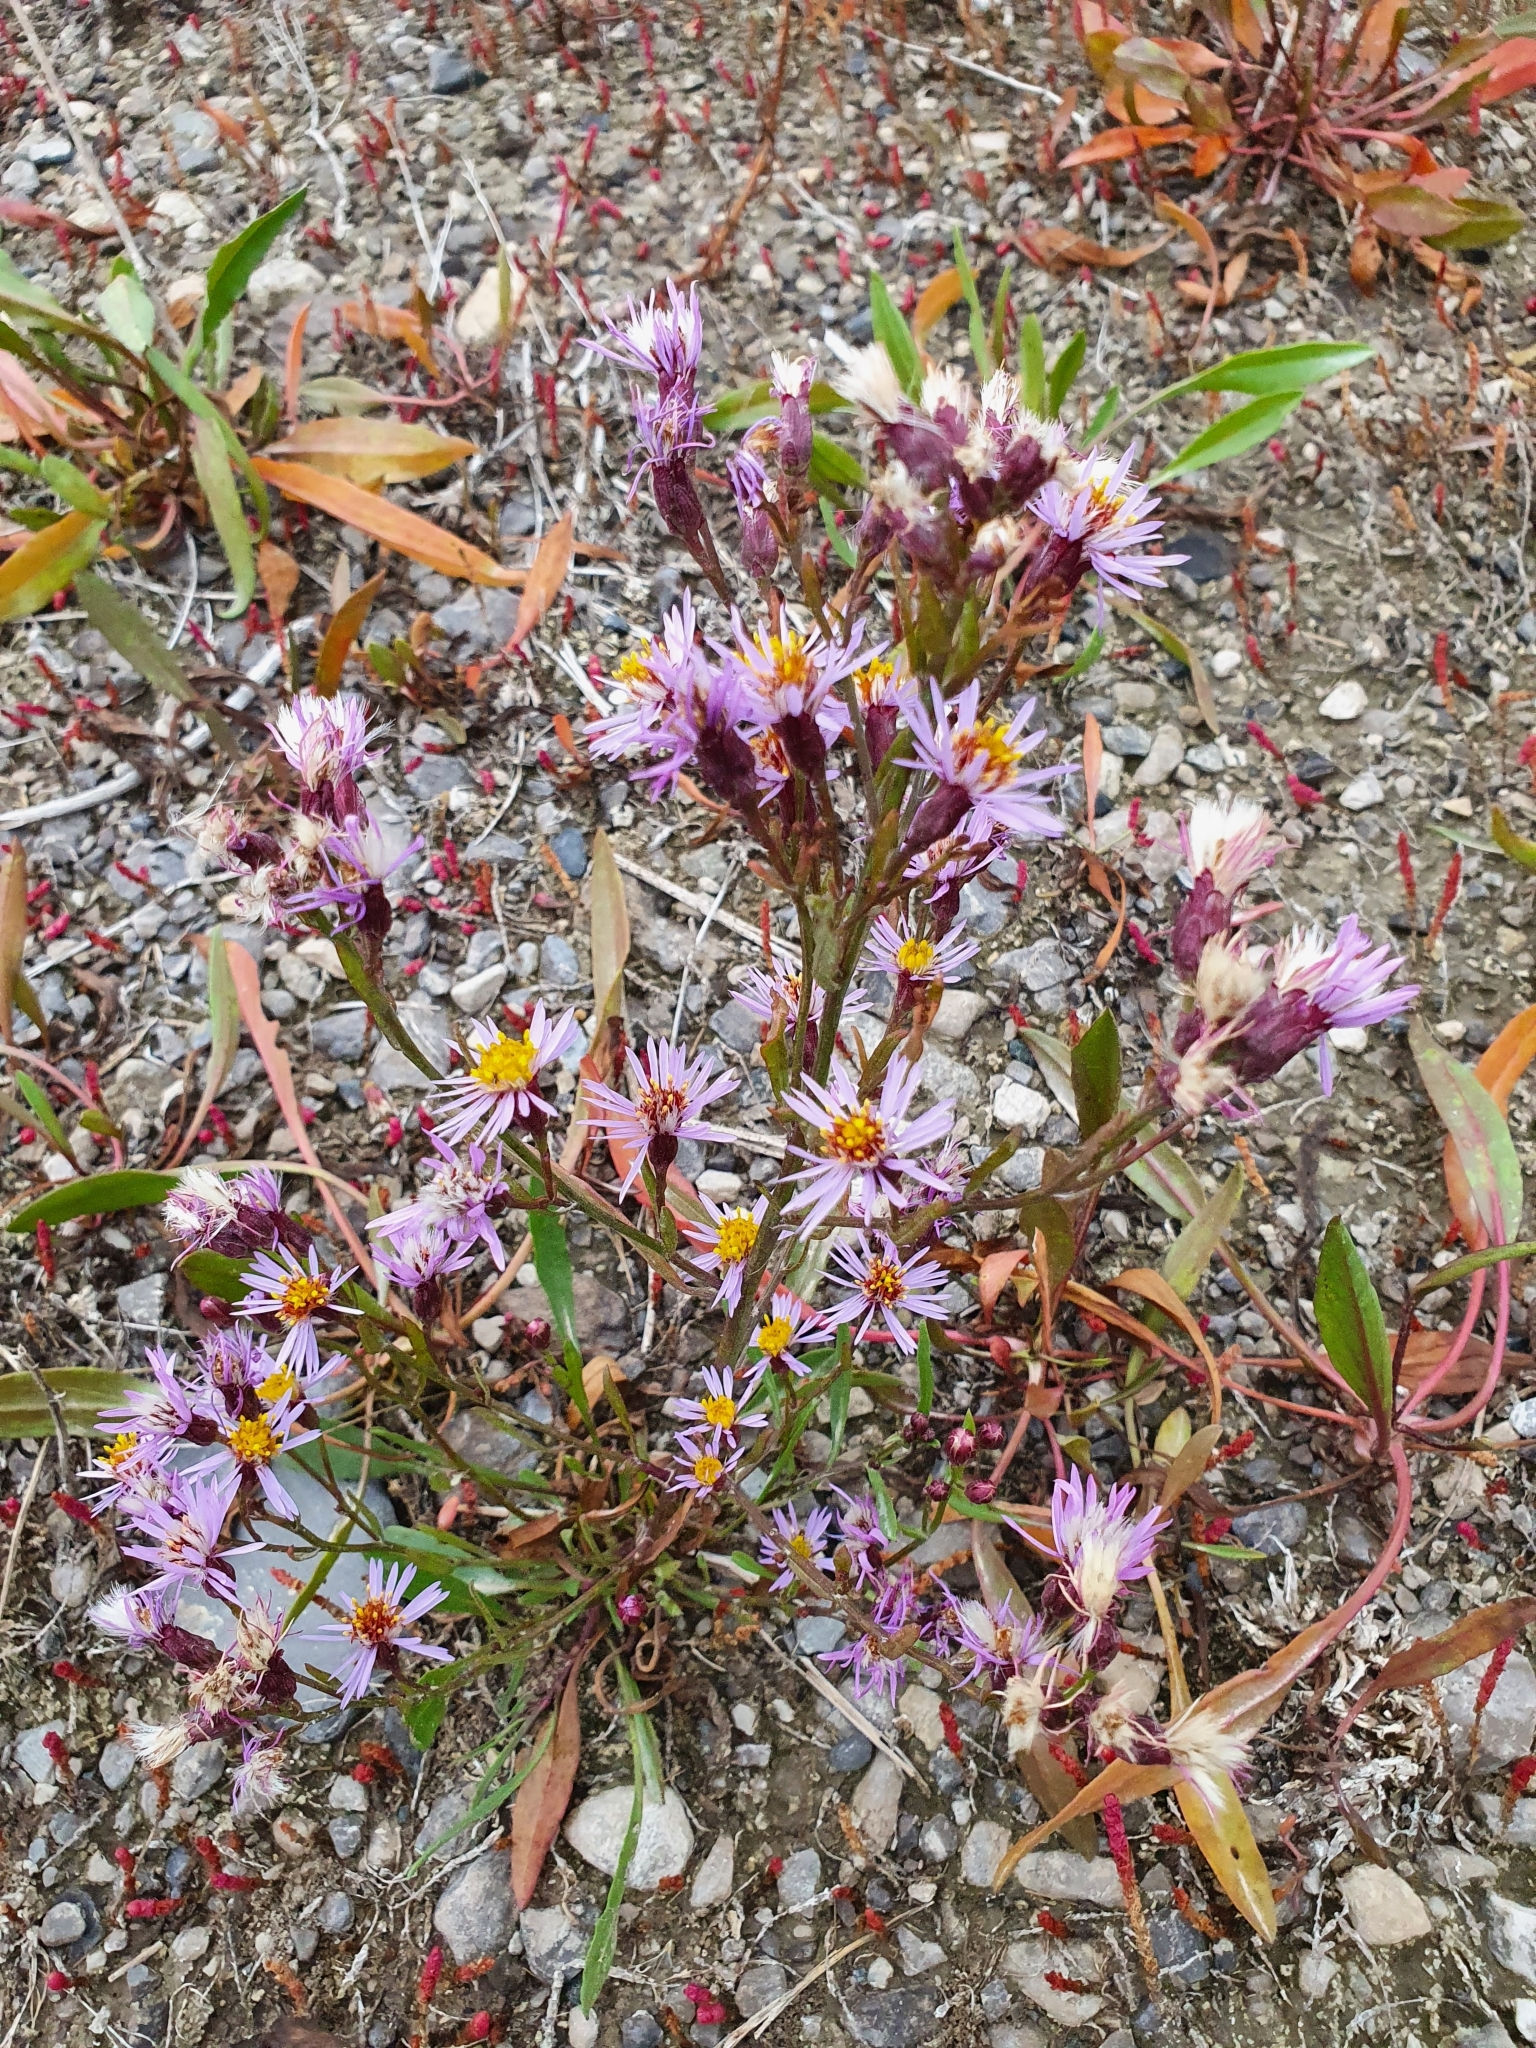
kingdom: Plantae
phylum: Tracheophyta
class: Magnoliopsida
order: Asterales
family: Asteraceae
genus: Tripolium
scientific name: Tripolium pannonicum
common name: Sea aster
